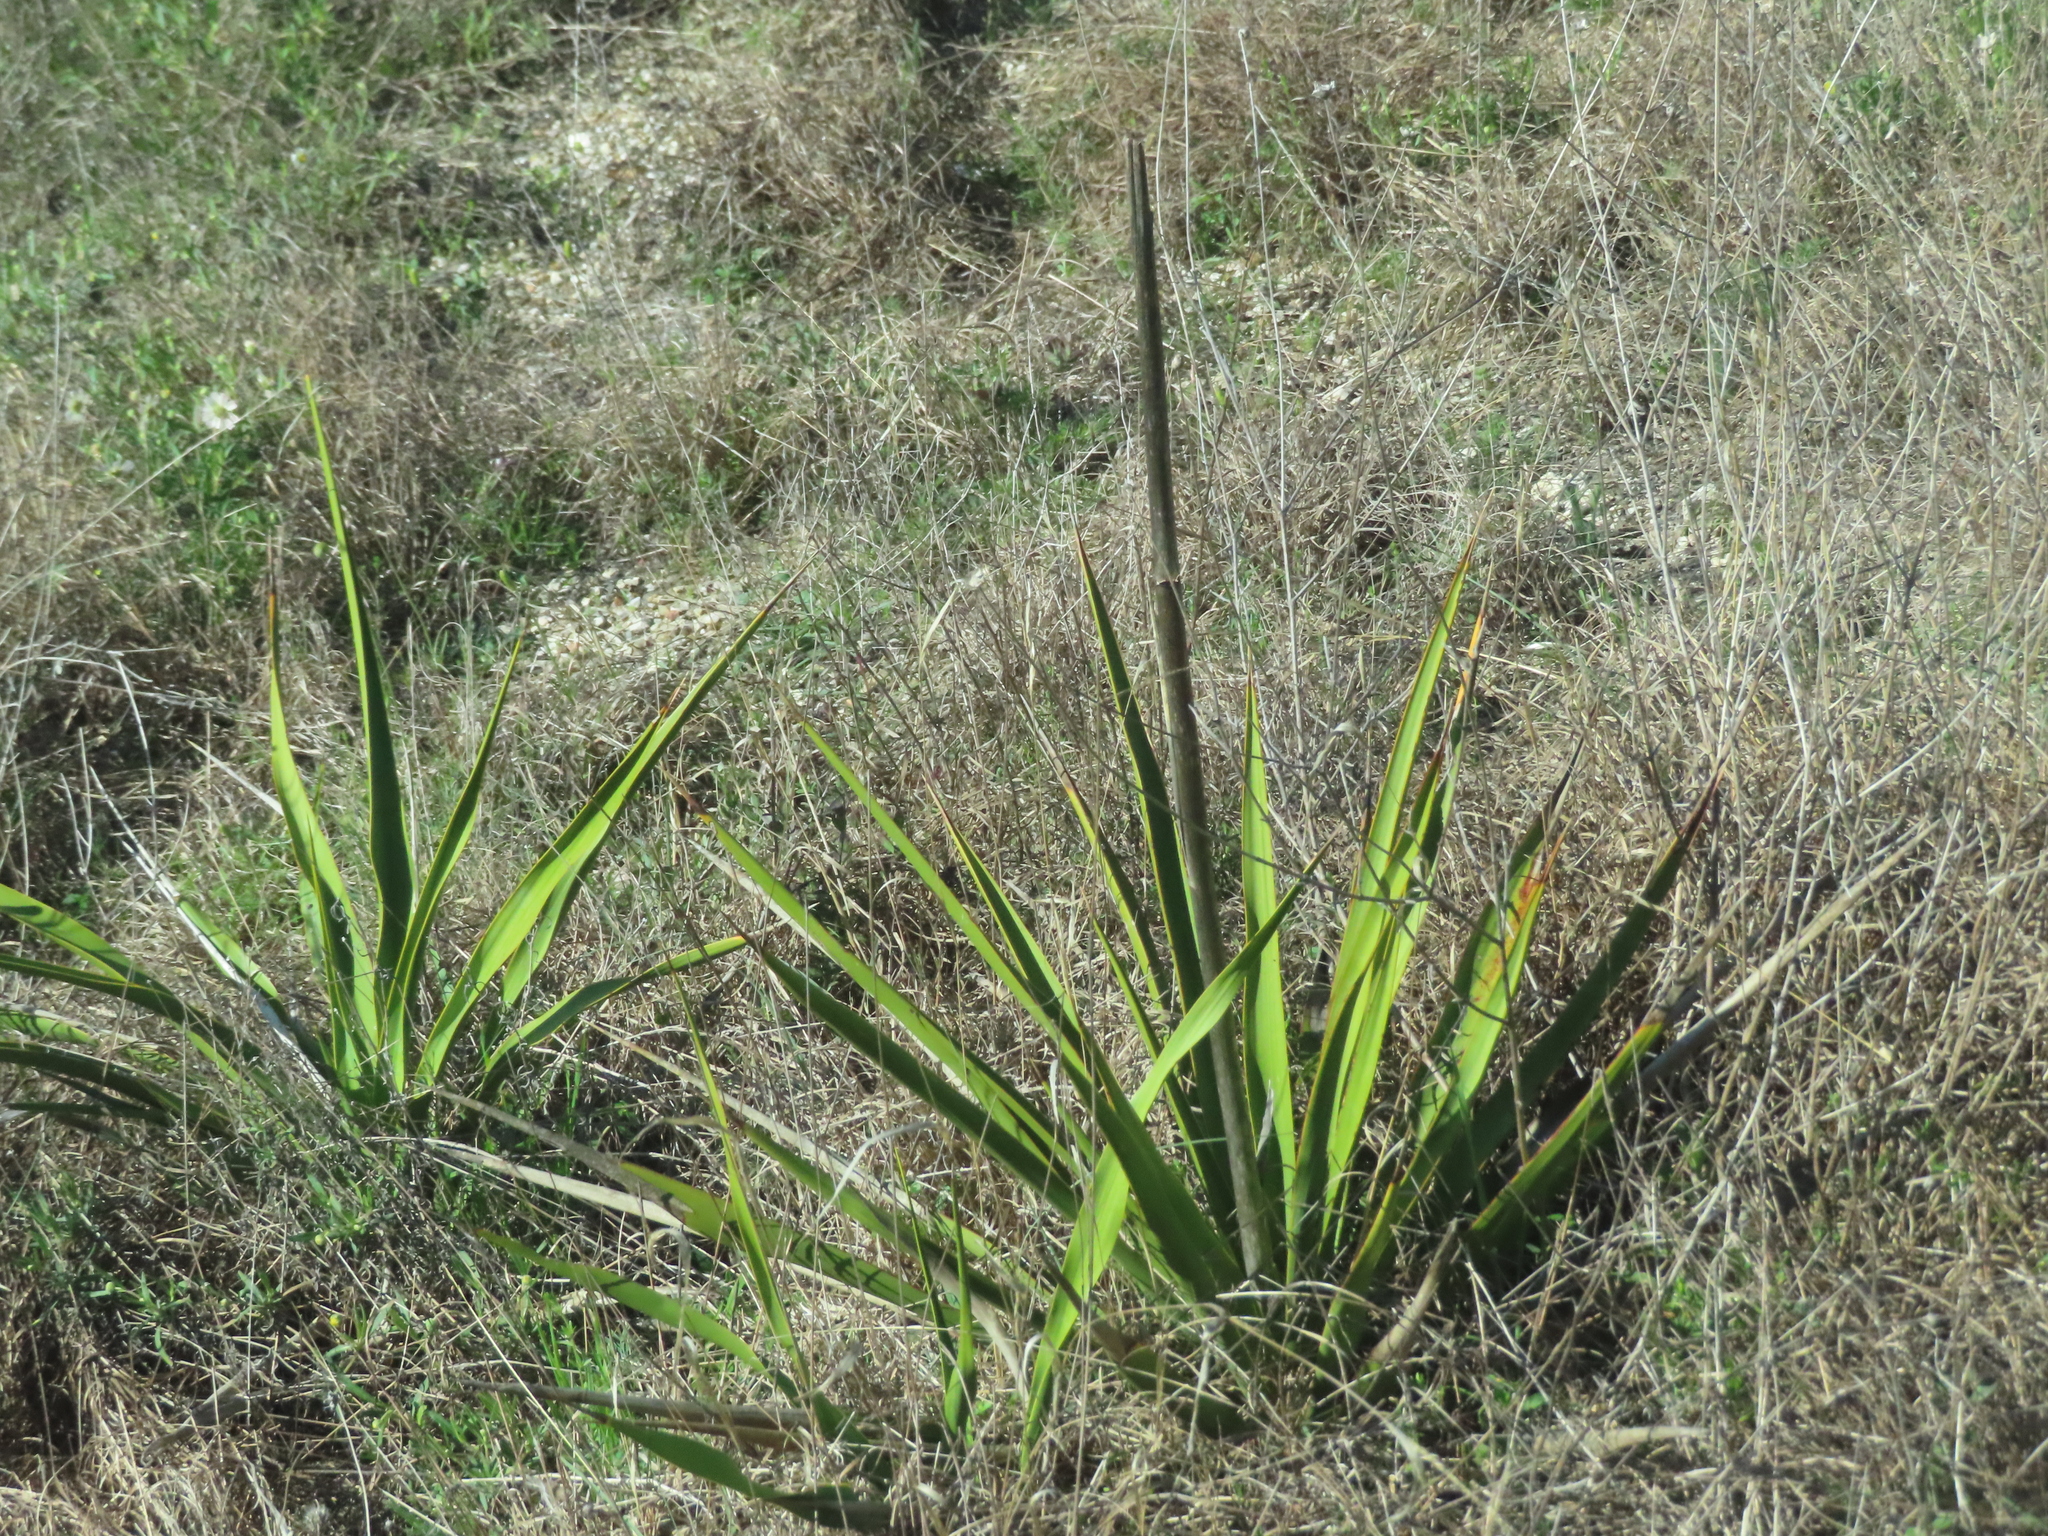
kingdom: Plantae
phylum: Tracheophyta
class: Liliopsida
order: Asparagales
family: Asparagaceae
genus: Yucca
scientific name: Yucca rupicola
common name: Twisted-leaf spanish-dagger
